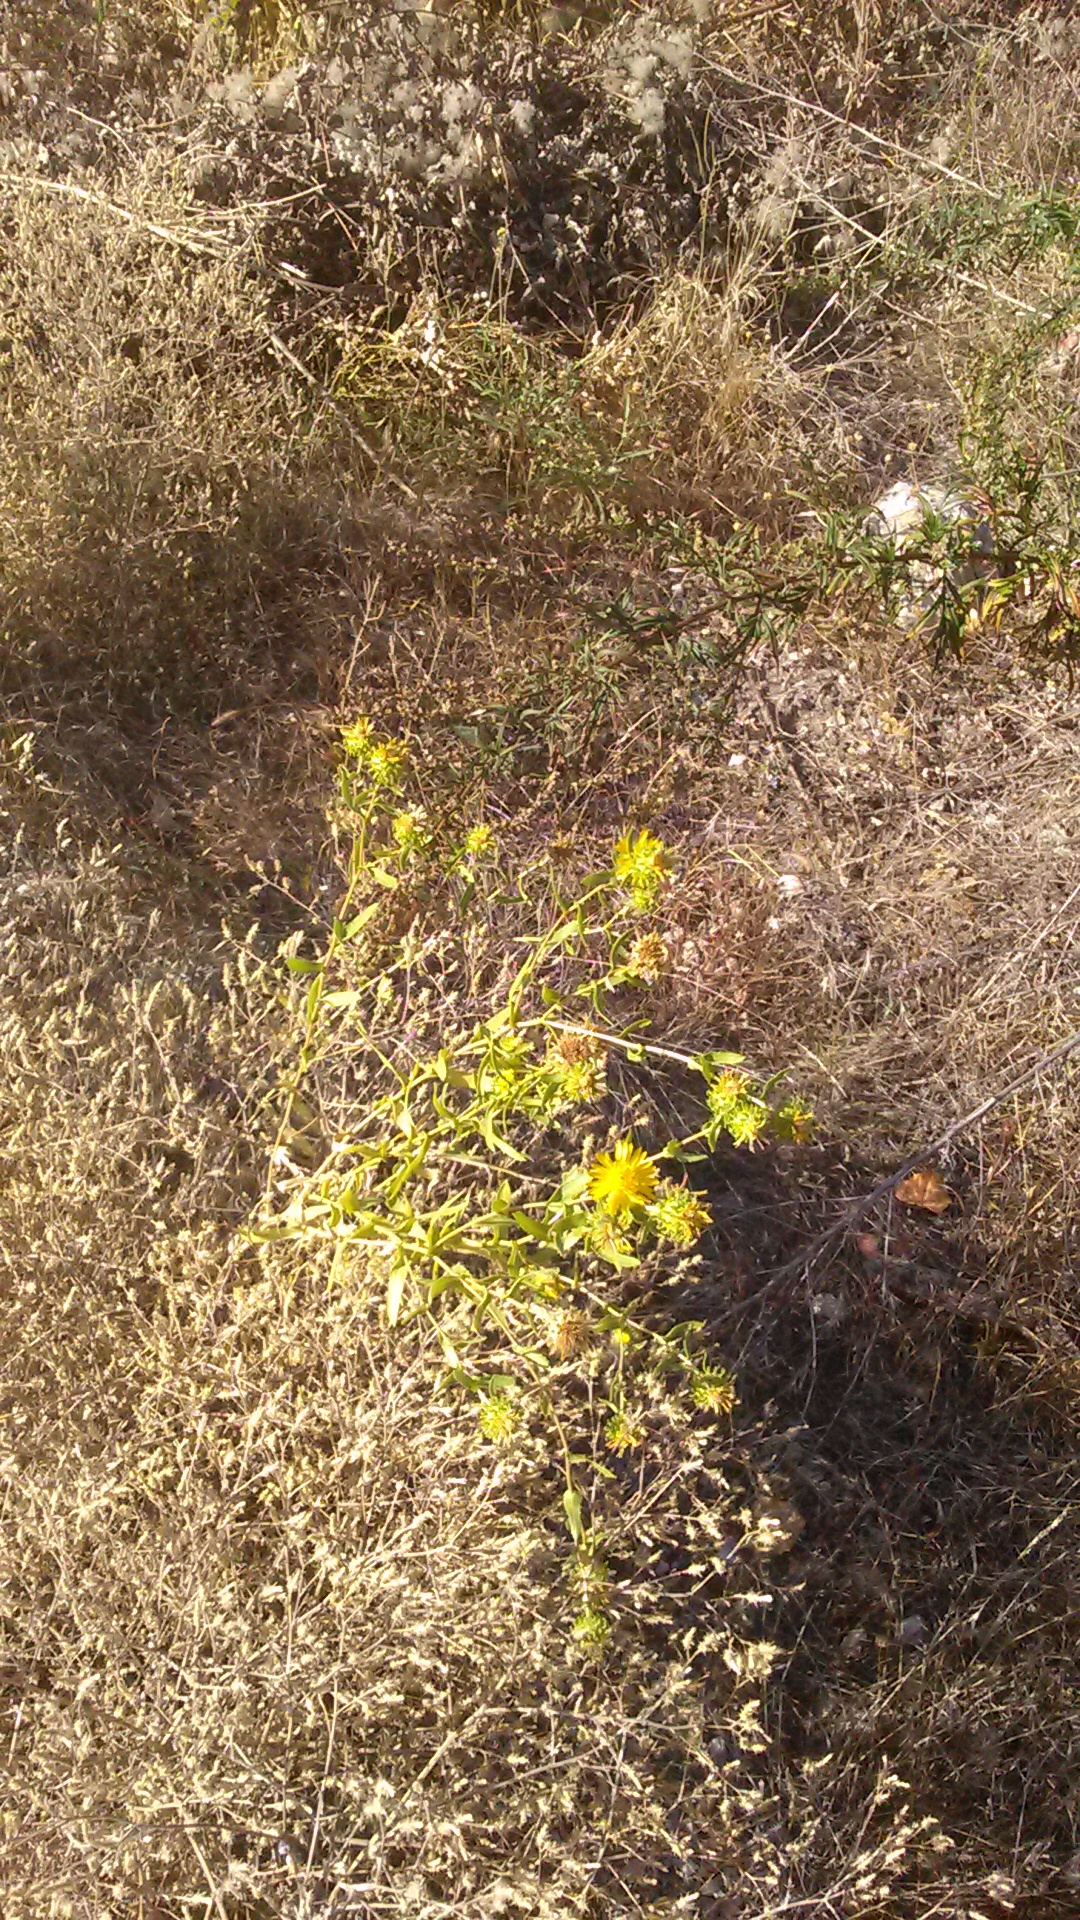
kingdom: Plantae
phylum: Tracheophyta
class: Magnoliopsida
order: Asterales
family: Asteraceae
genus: Grindelia
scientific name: Grindelia squarrosa
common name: Curly-cup gumweed
